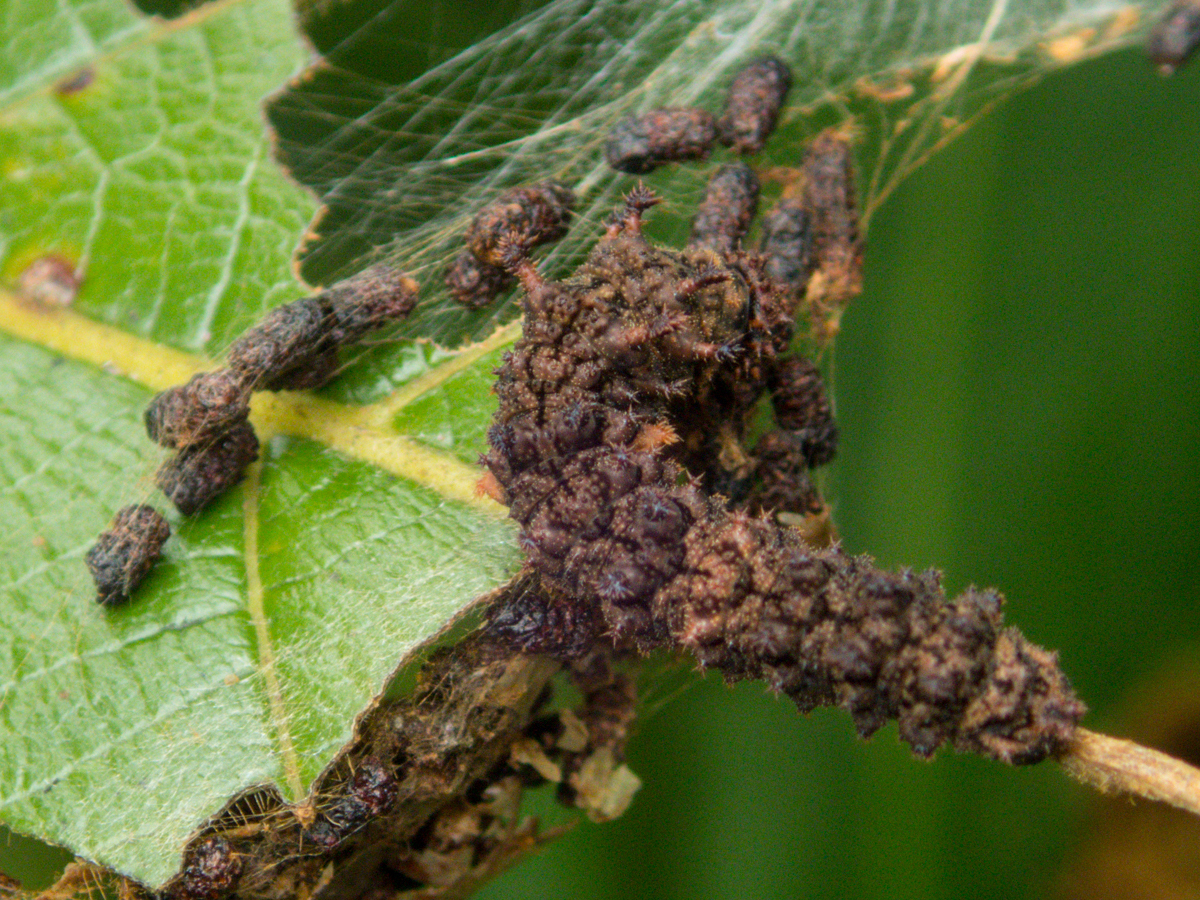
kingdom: Animalia
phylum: Arthropoda
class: Insecta
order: Lepidoptera
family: Nymphalidae
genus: Limenitis
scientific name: Limenitis Moduza procris
